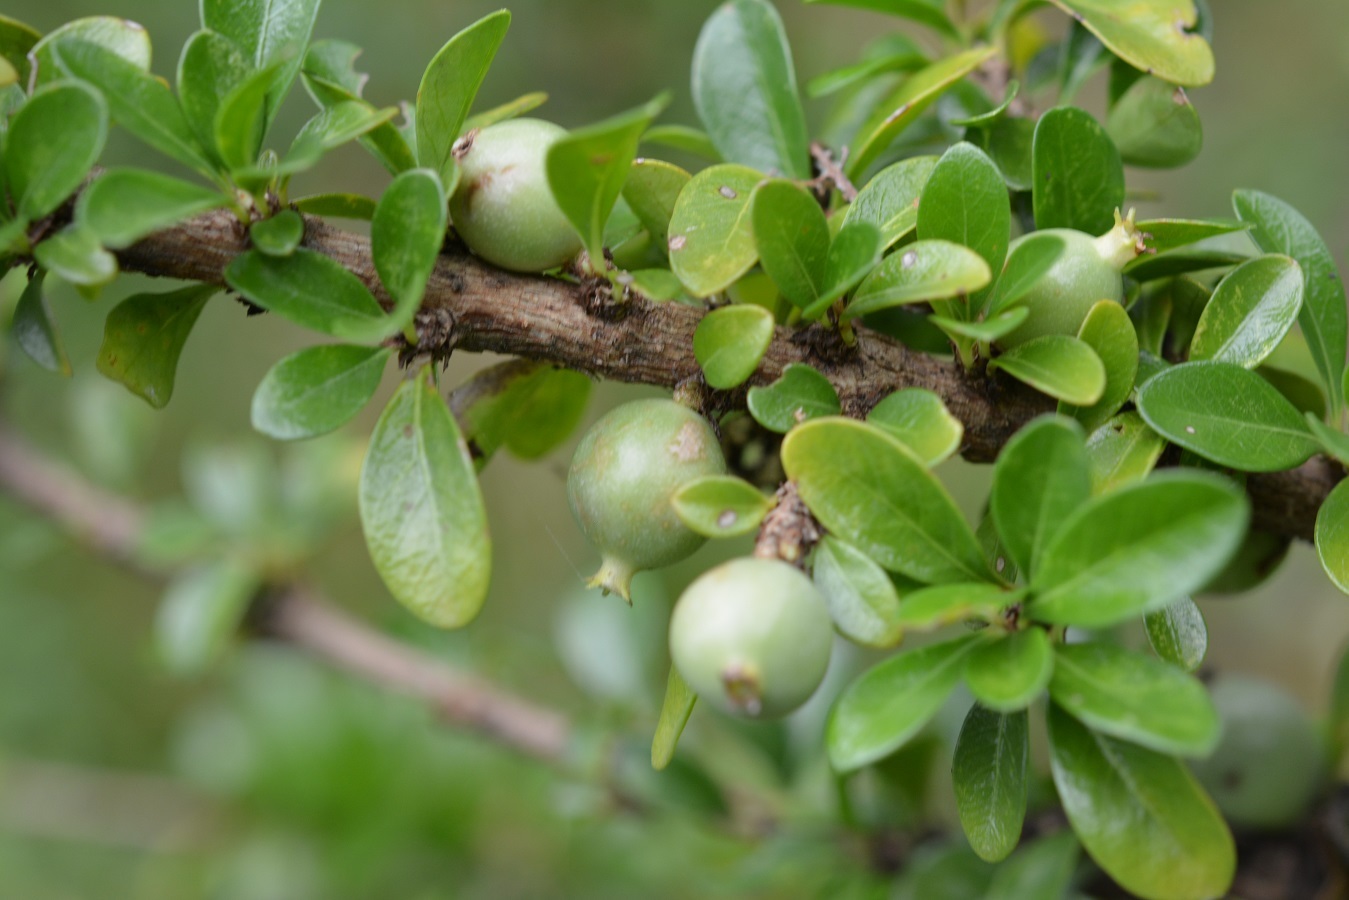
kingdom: Plantae
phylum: Tracheophyta
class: Magnoliopsida
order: Gentianales
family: Rubiaceae
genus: Randia
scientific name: Randia chiapensis
